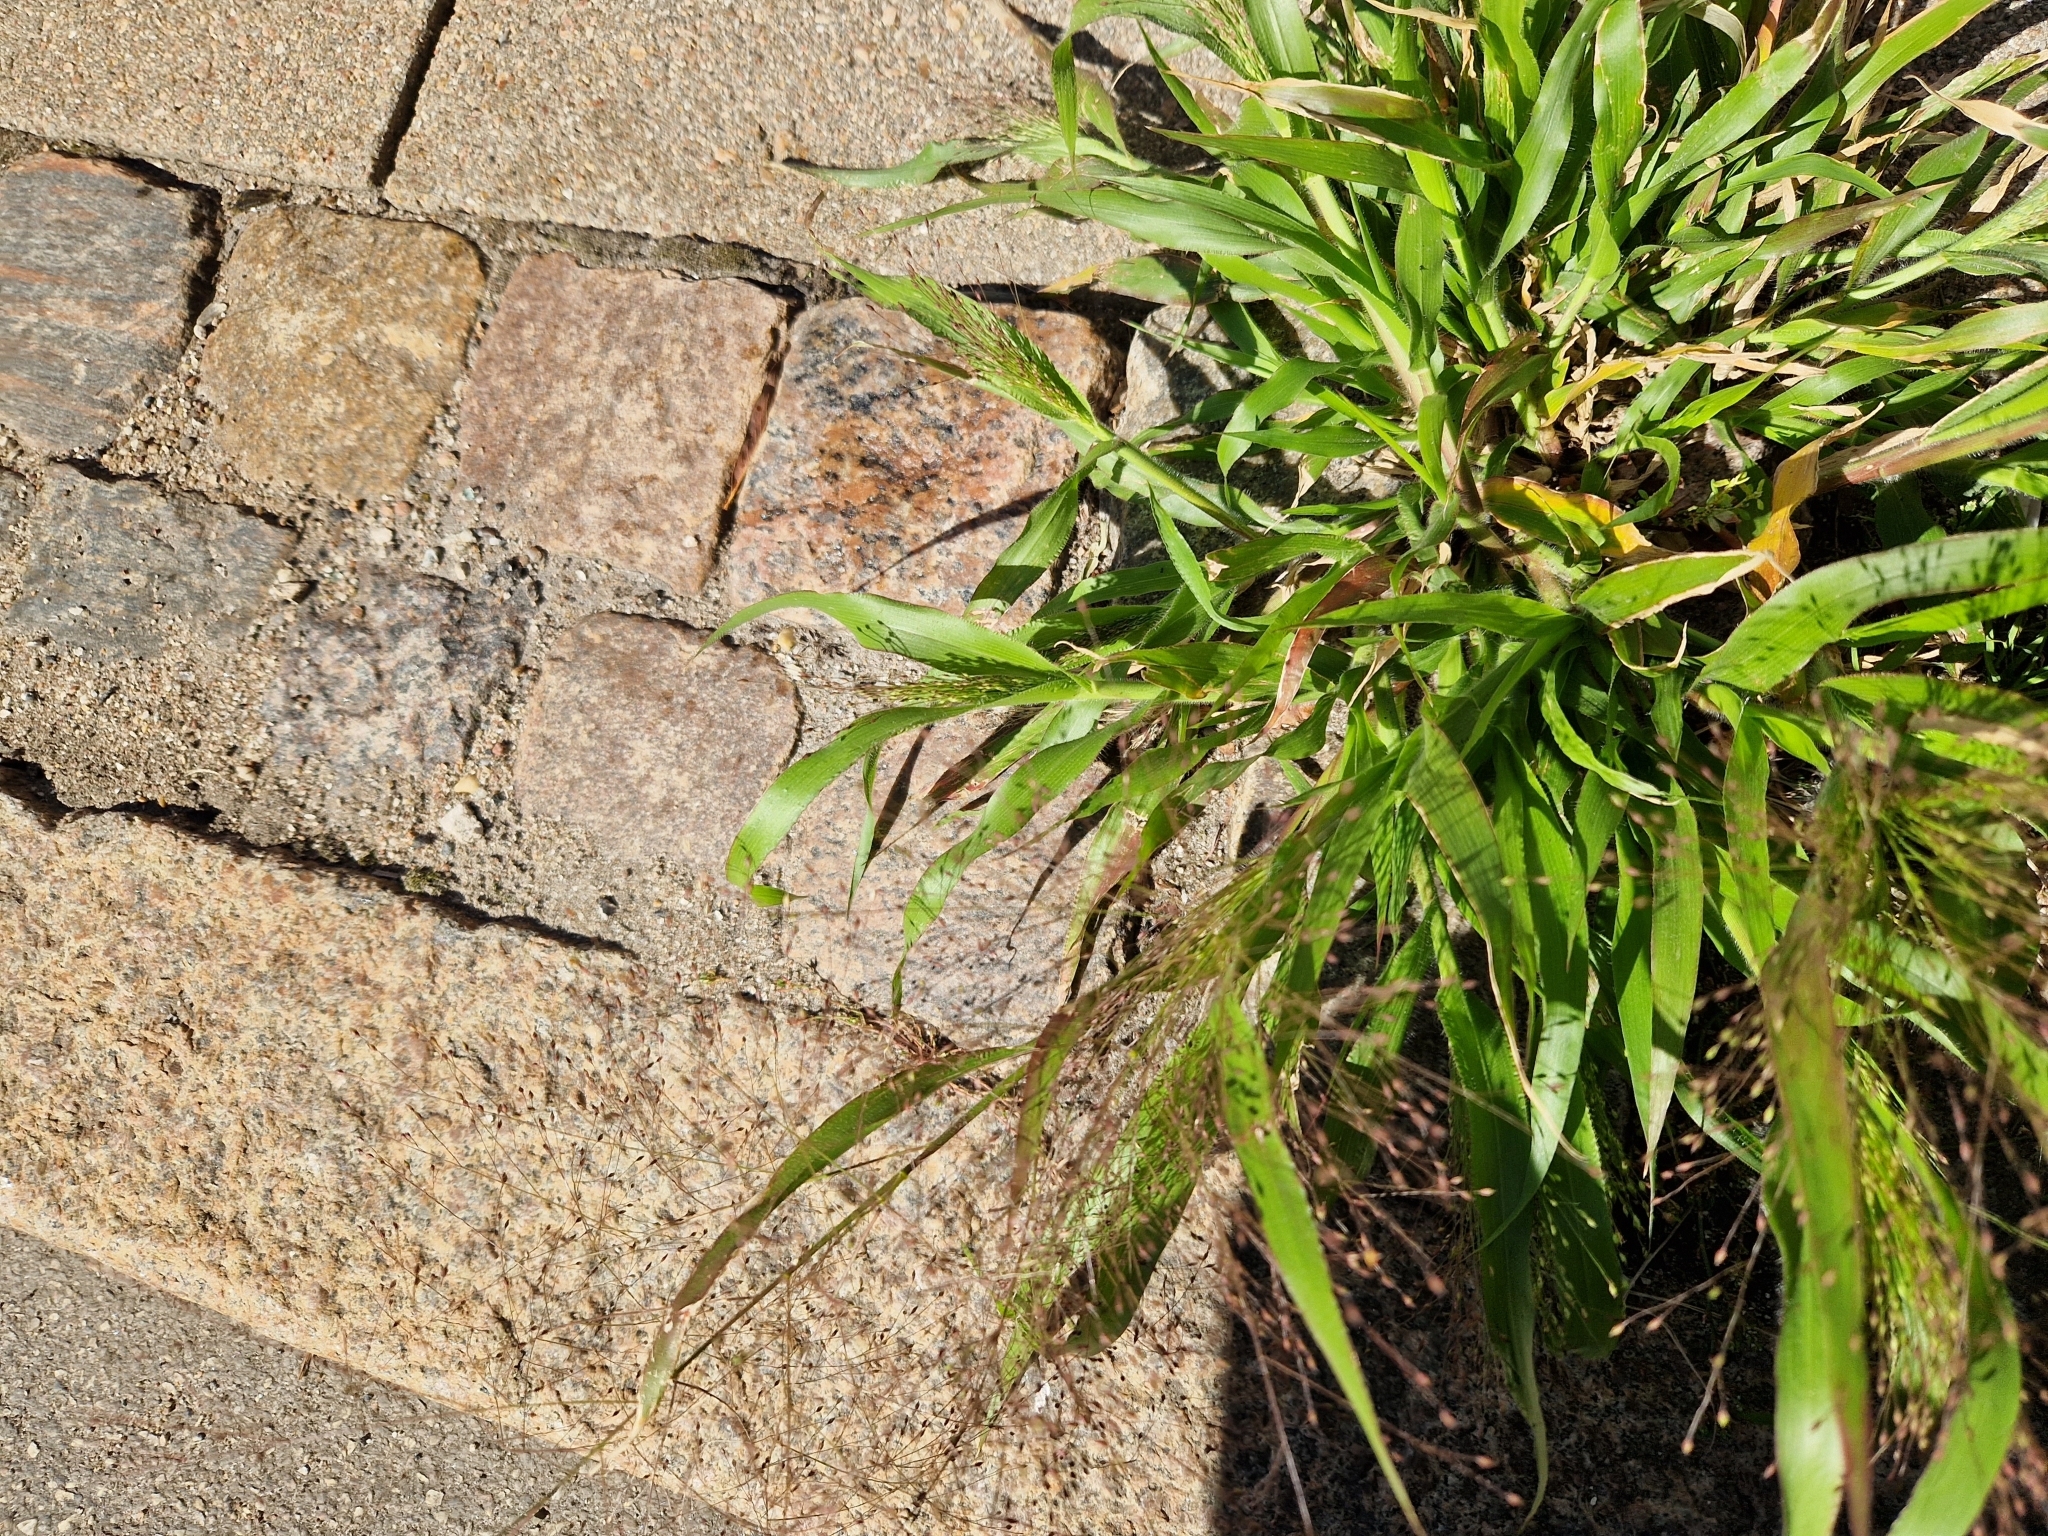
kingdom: Plantae
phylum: Tracheophyta
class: Liliopsida
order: Poales
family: Poaceae
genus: Panicum
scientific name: Panicum capillare
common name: Witch-grass
